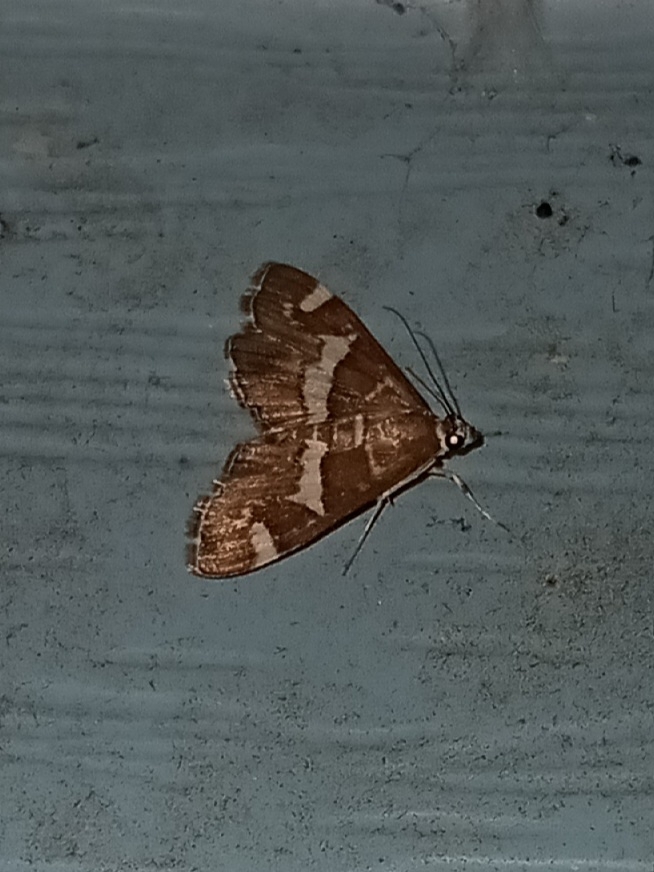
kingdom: Animalia
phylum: Arthropoda
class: Insecta
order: Lepidoptera
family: Crambidae
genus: Spoladea
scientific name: Spoladea recurvalis
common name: Beet webworm moth
